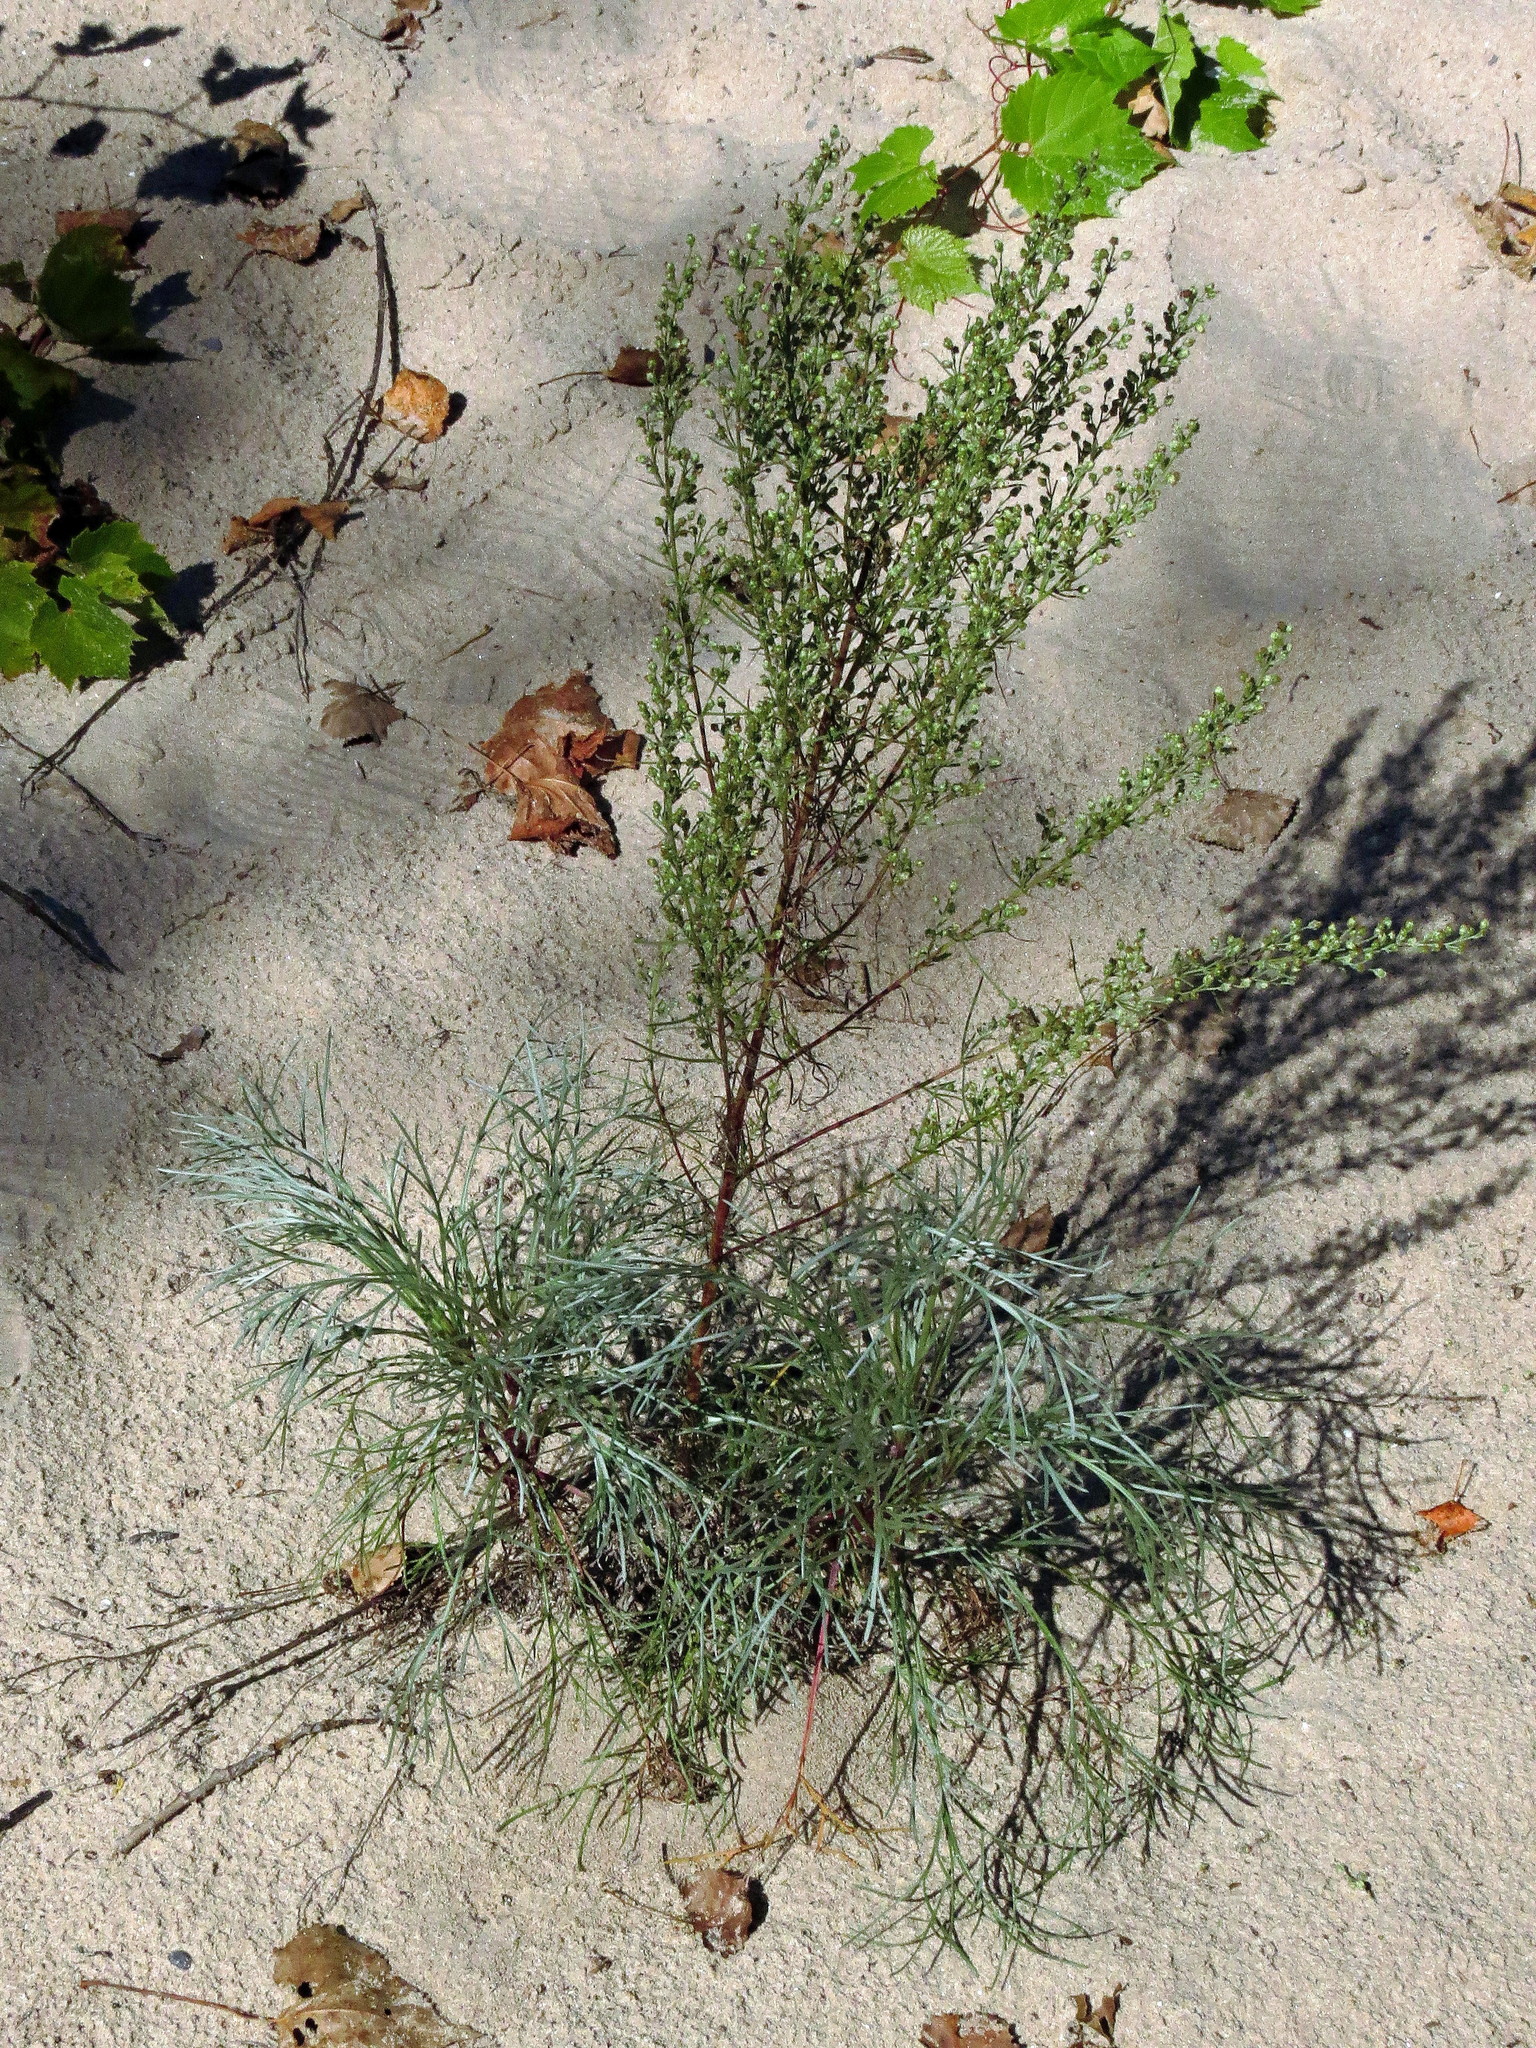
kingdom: Plantae
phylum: Tracheophyta
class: Magnoliopsida
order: Asterales
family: Asteraceae
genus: Artemisia
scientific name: Artemisia campestris
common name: Field wormwood
